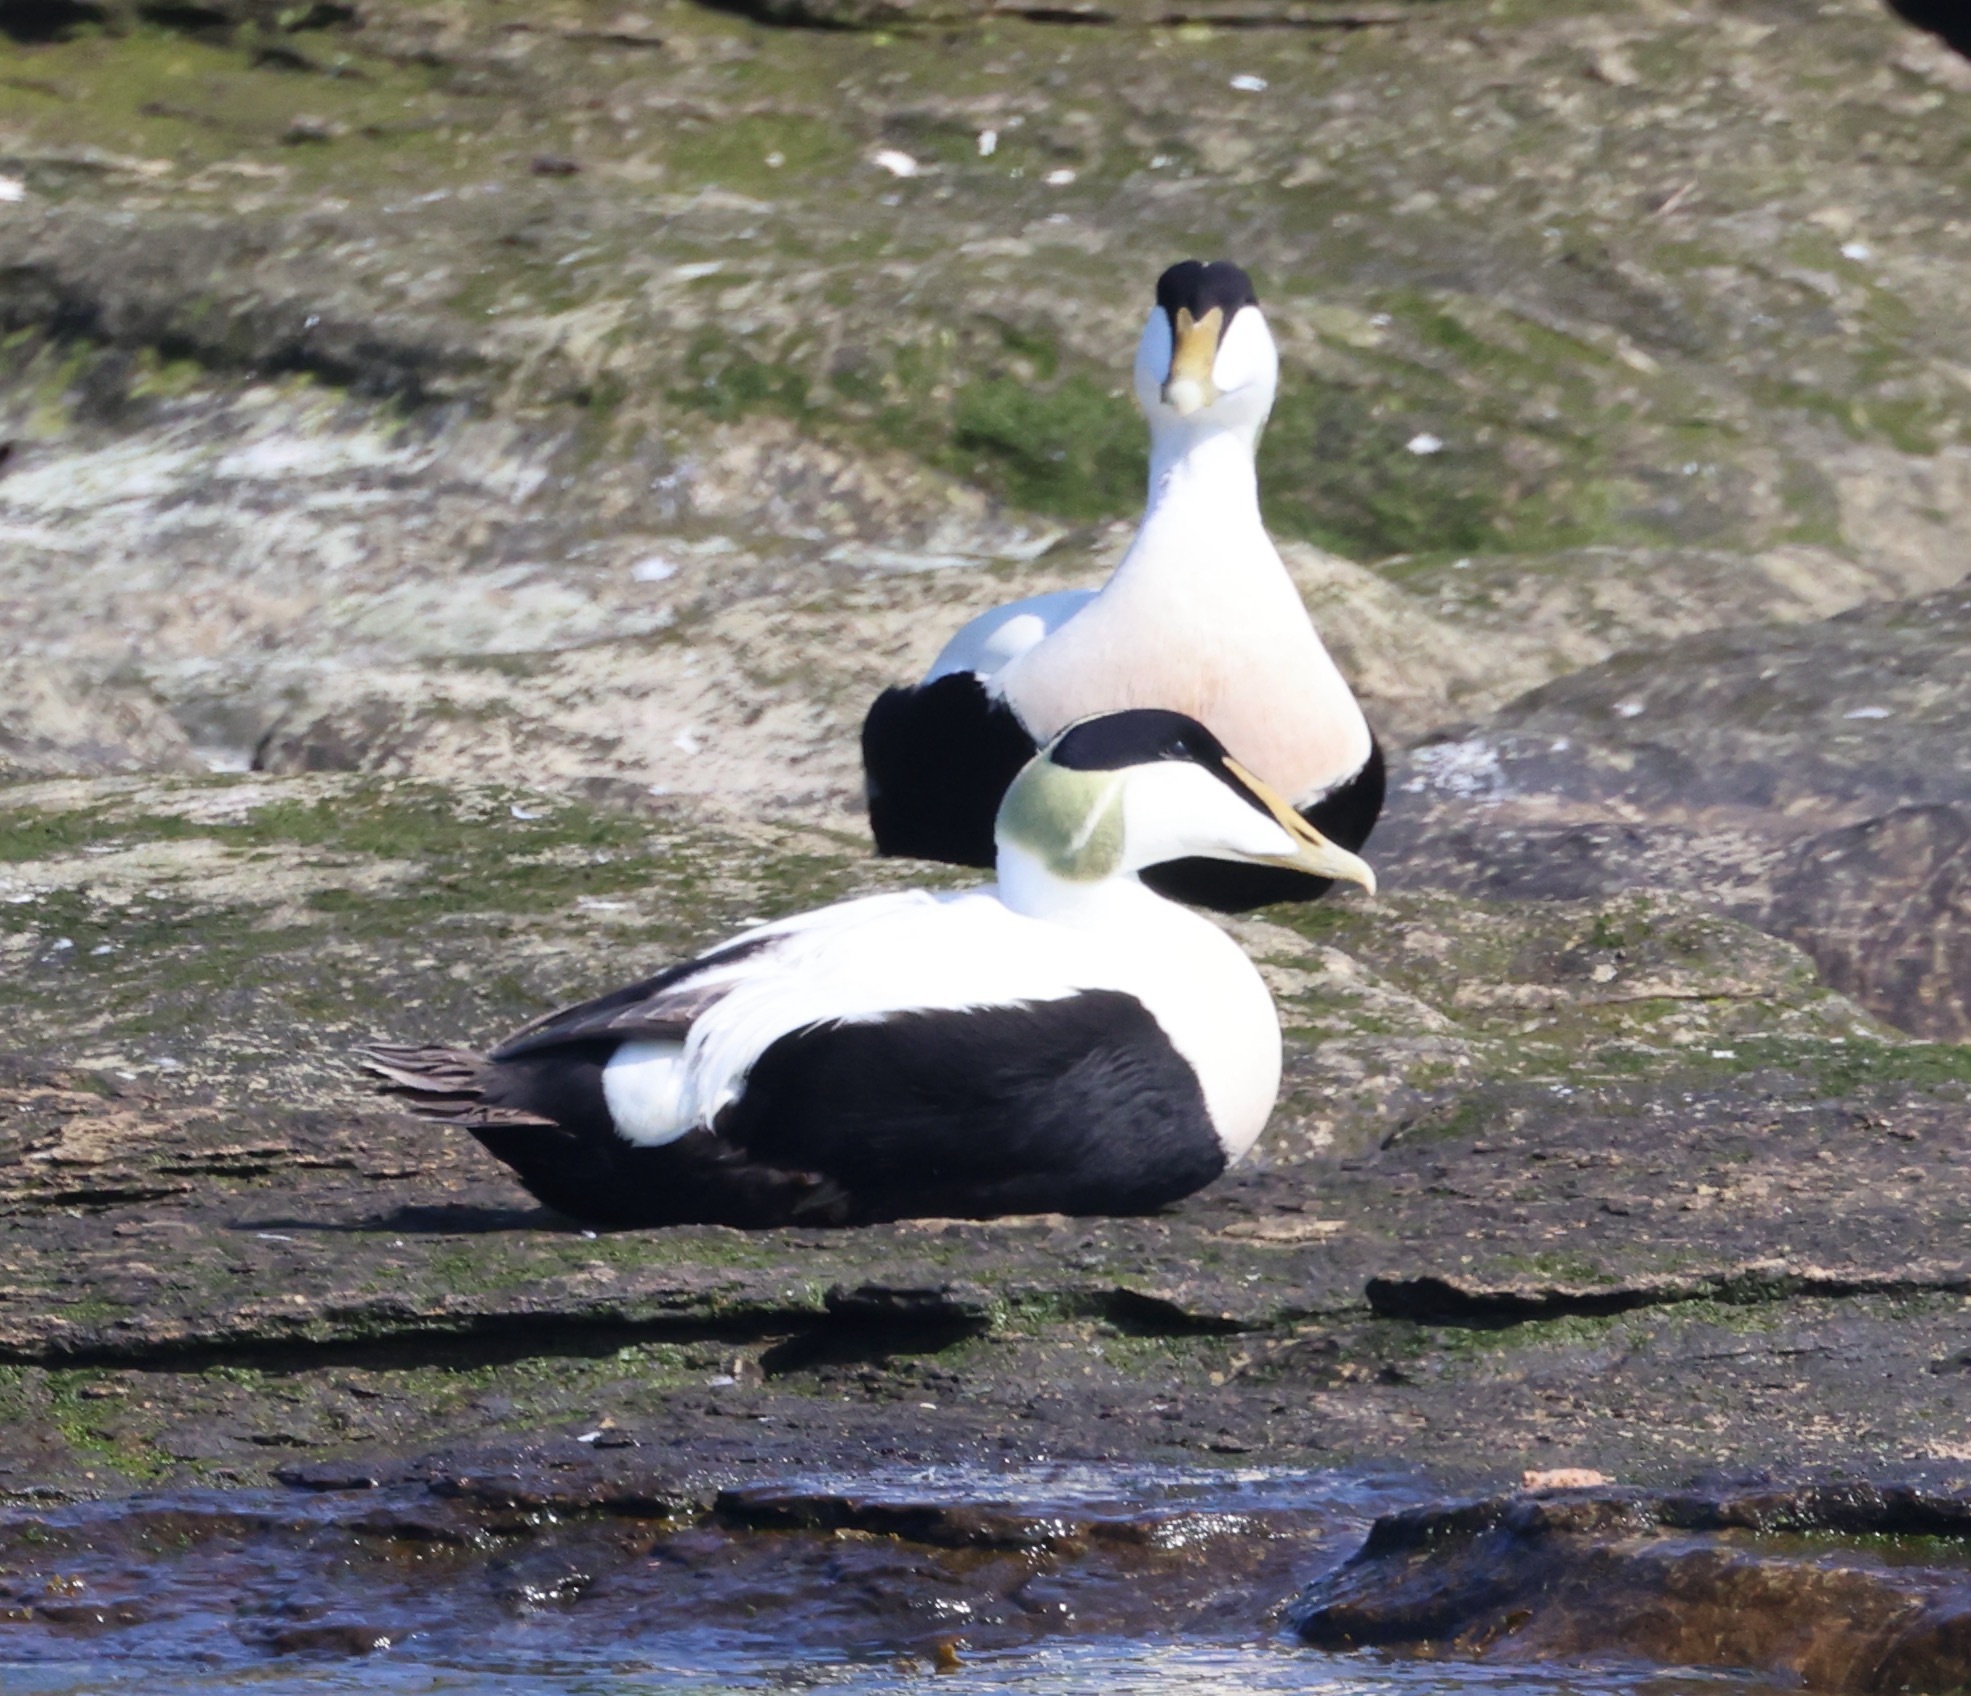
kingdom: Animalia
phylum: Chordata
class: Aves
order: Anseriformes
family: Anatidae
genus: Somateria
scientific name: Somateria mollissima
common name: Common eider
